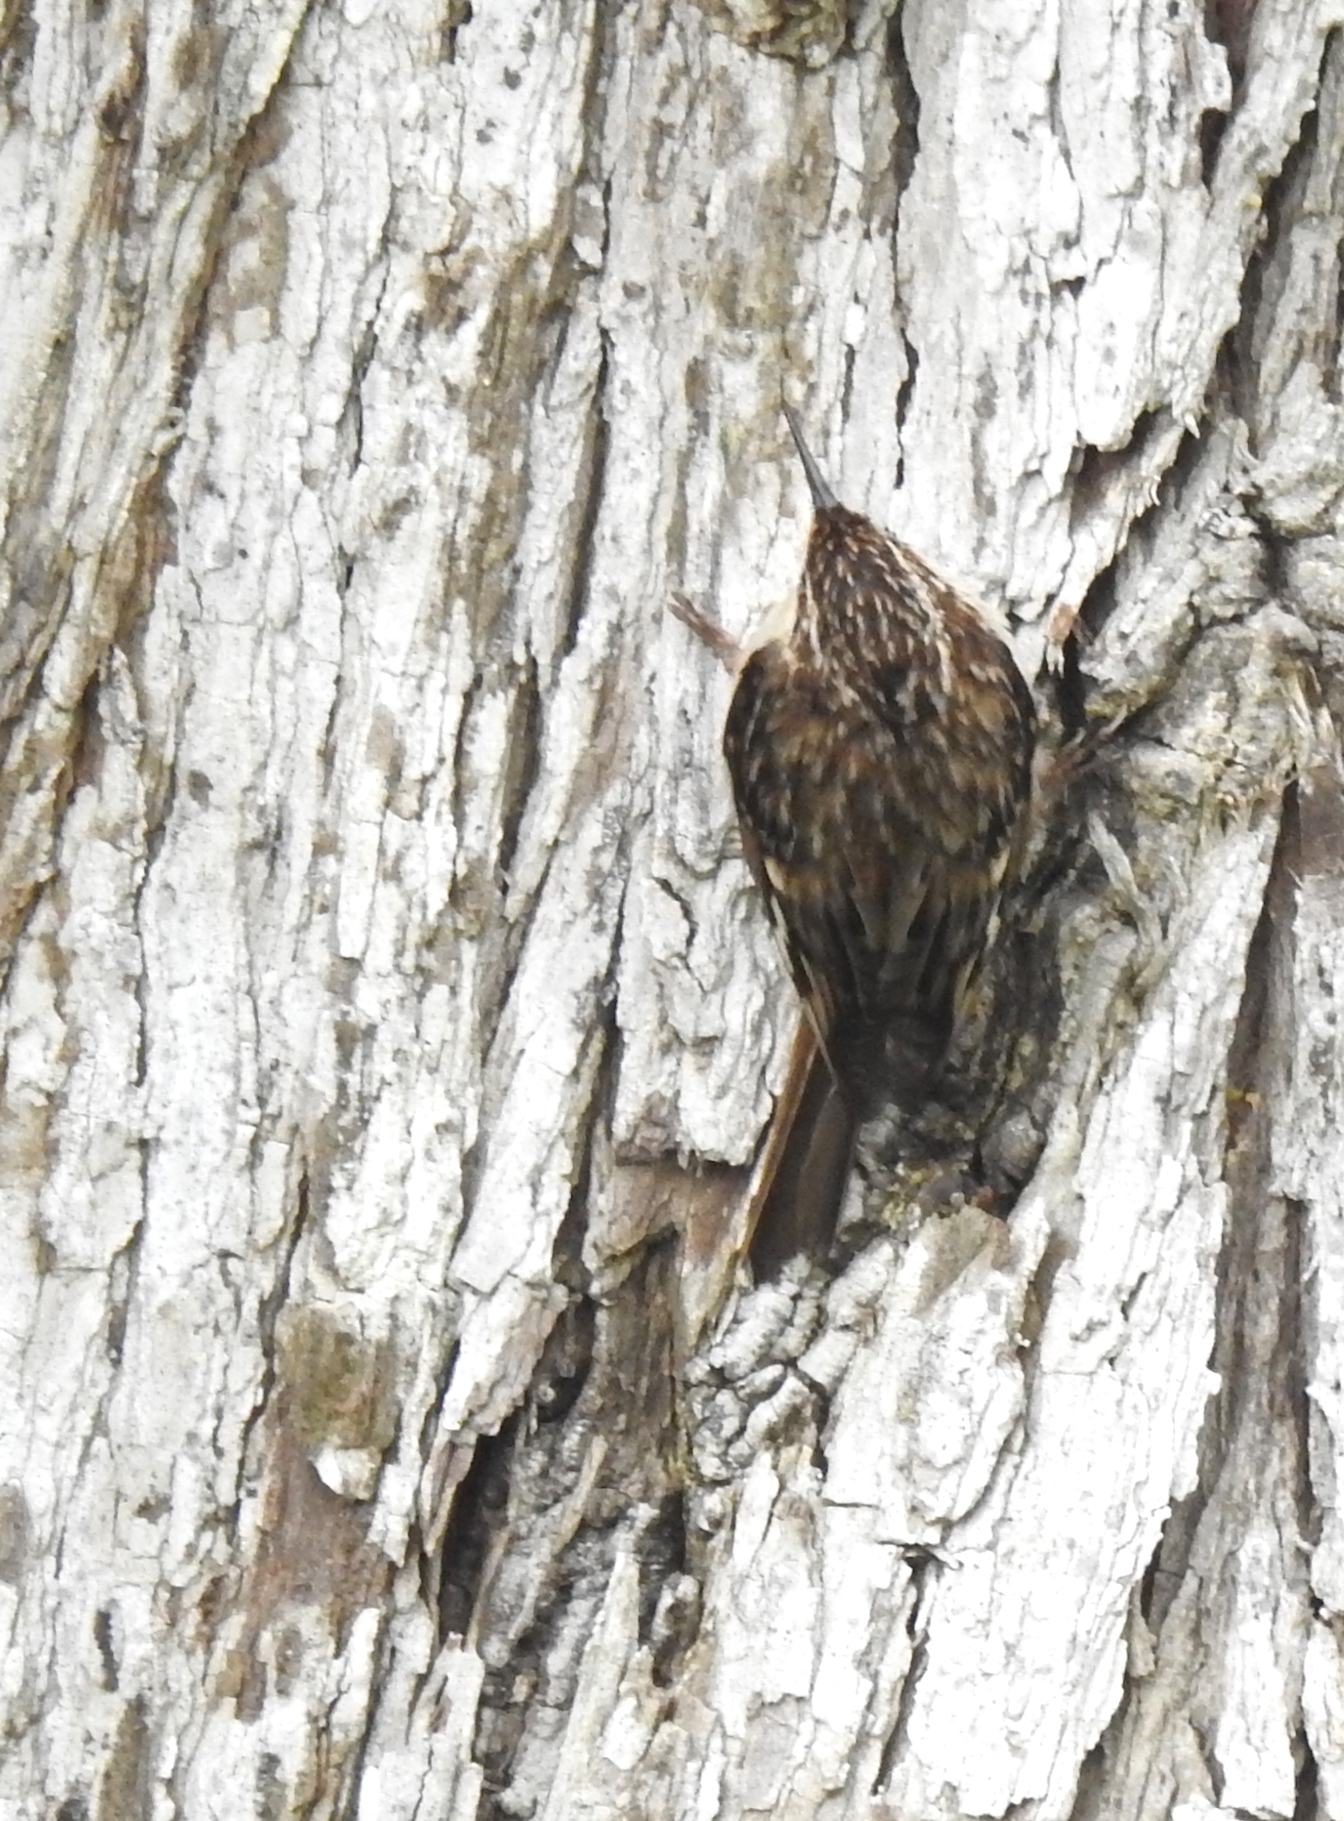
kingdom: Animalia
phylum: Chordata
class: Aves
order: Passeriformes
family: Certhiidae
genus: Certhia
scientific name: Certhia americana
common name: Brown creeper
